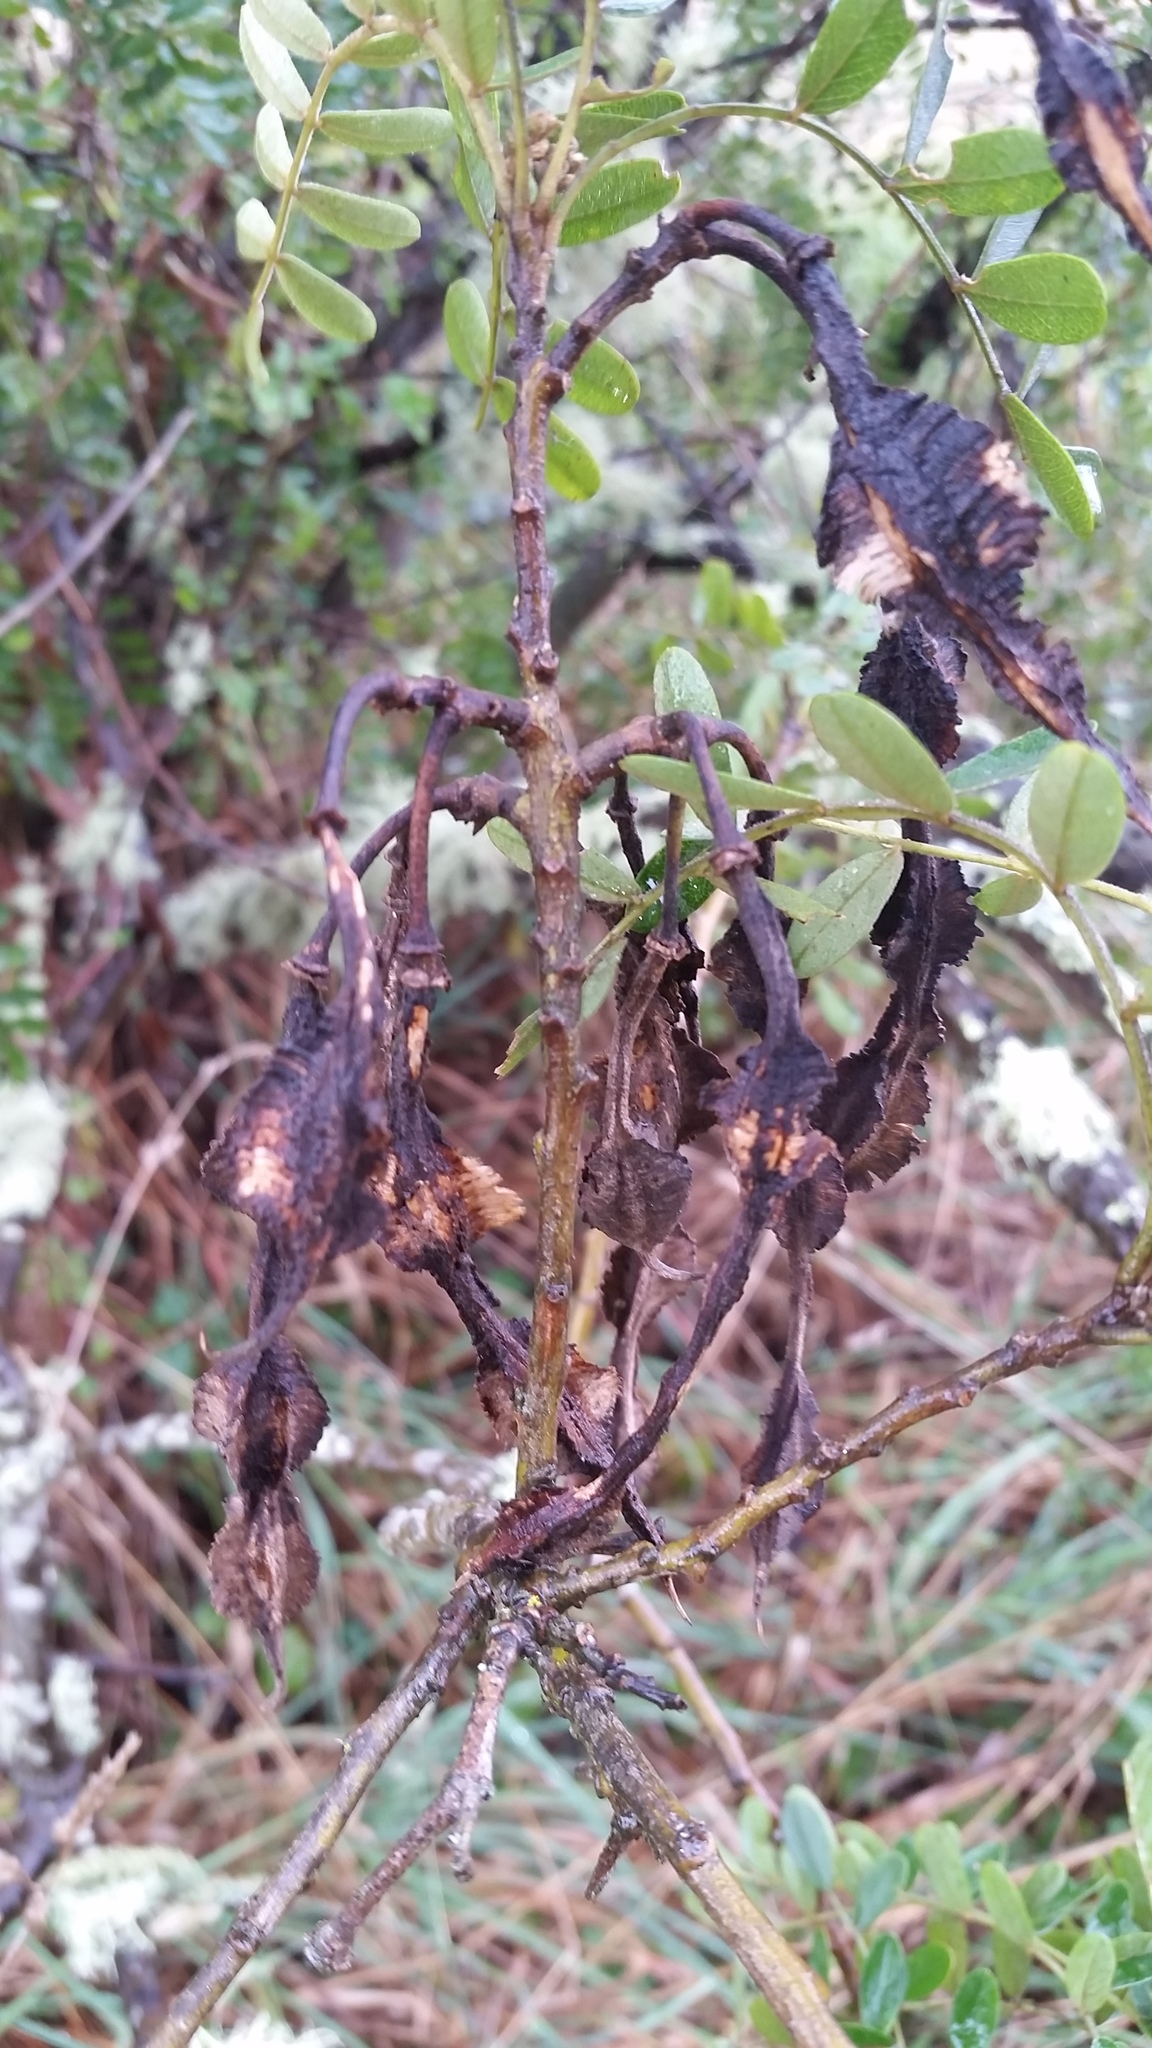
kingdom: Plantae
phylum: Tracheophyta
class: Magnoliopsida
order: Fabales
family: Fabaceae
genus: Sophora
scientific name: Sophora chrysophylla
